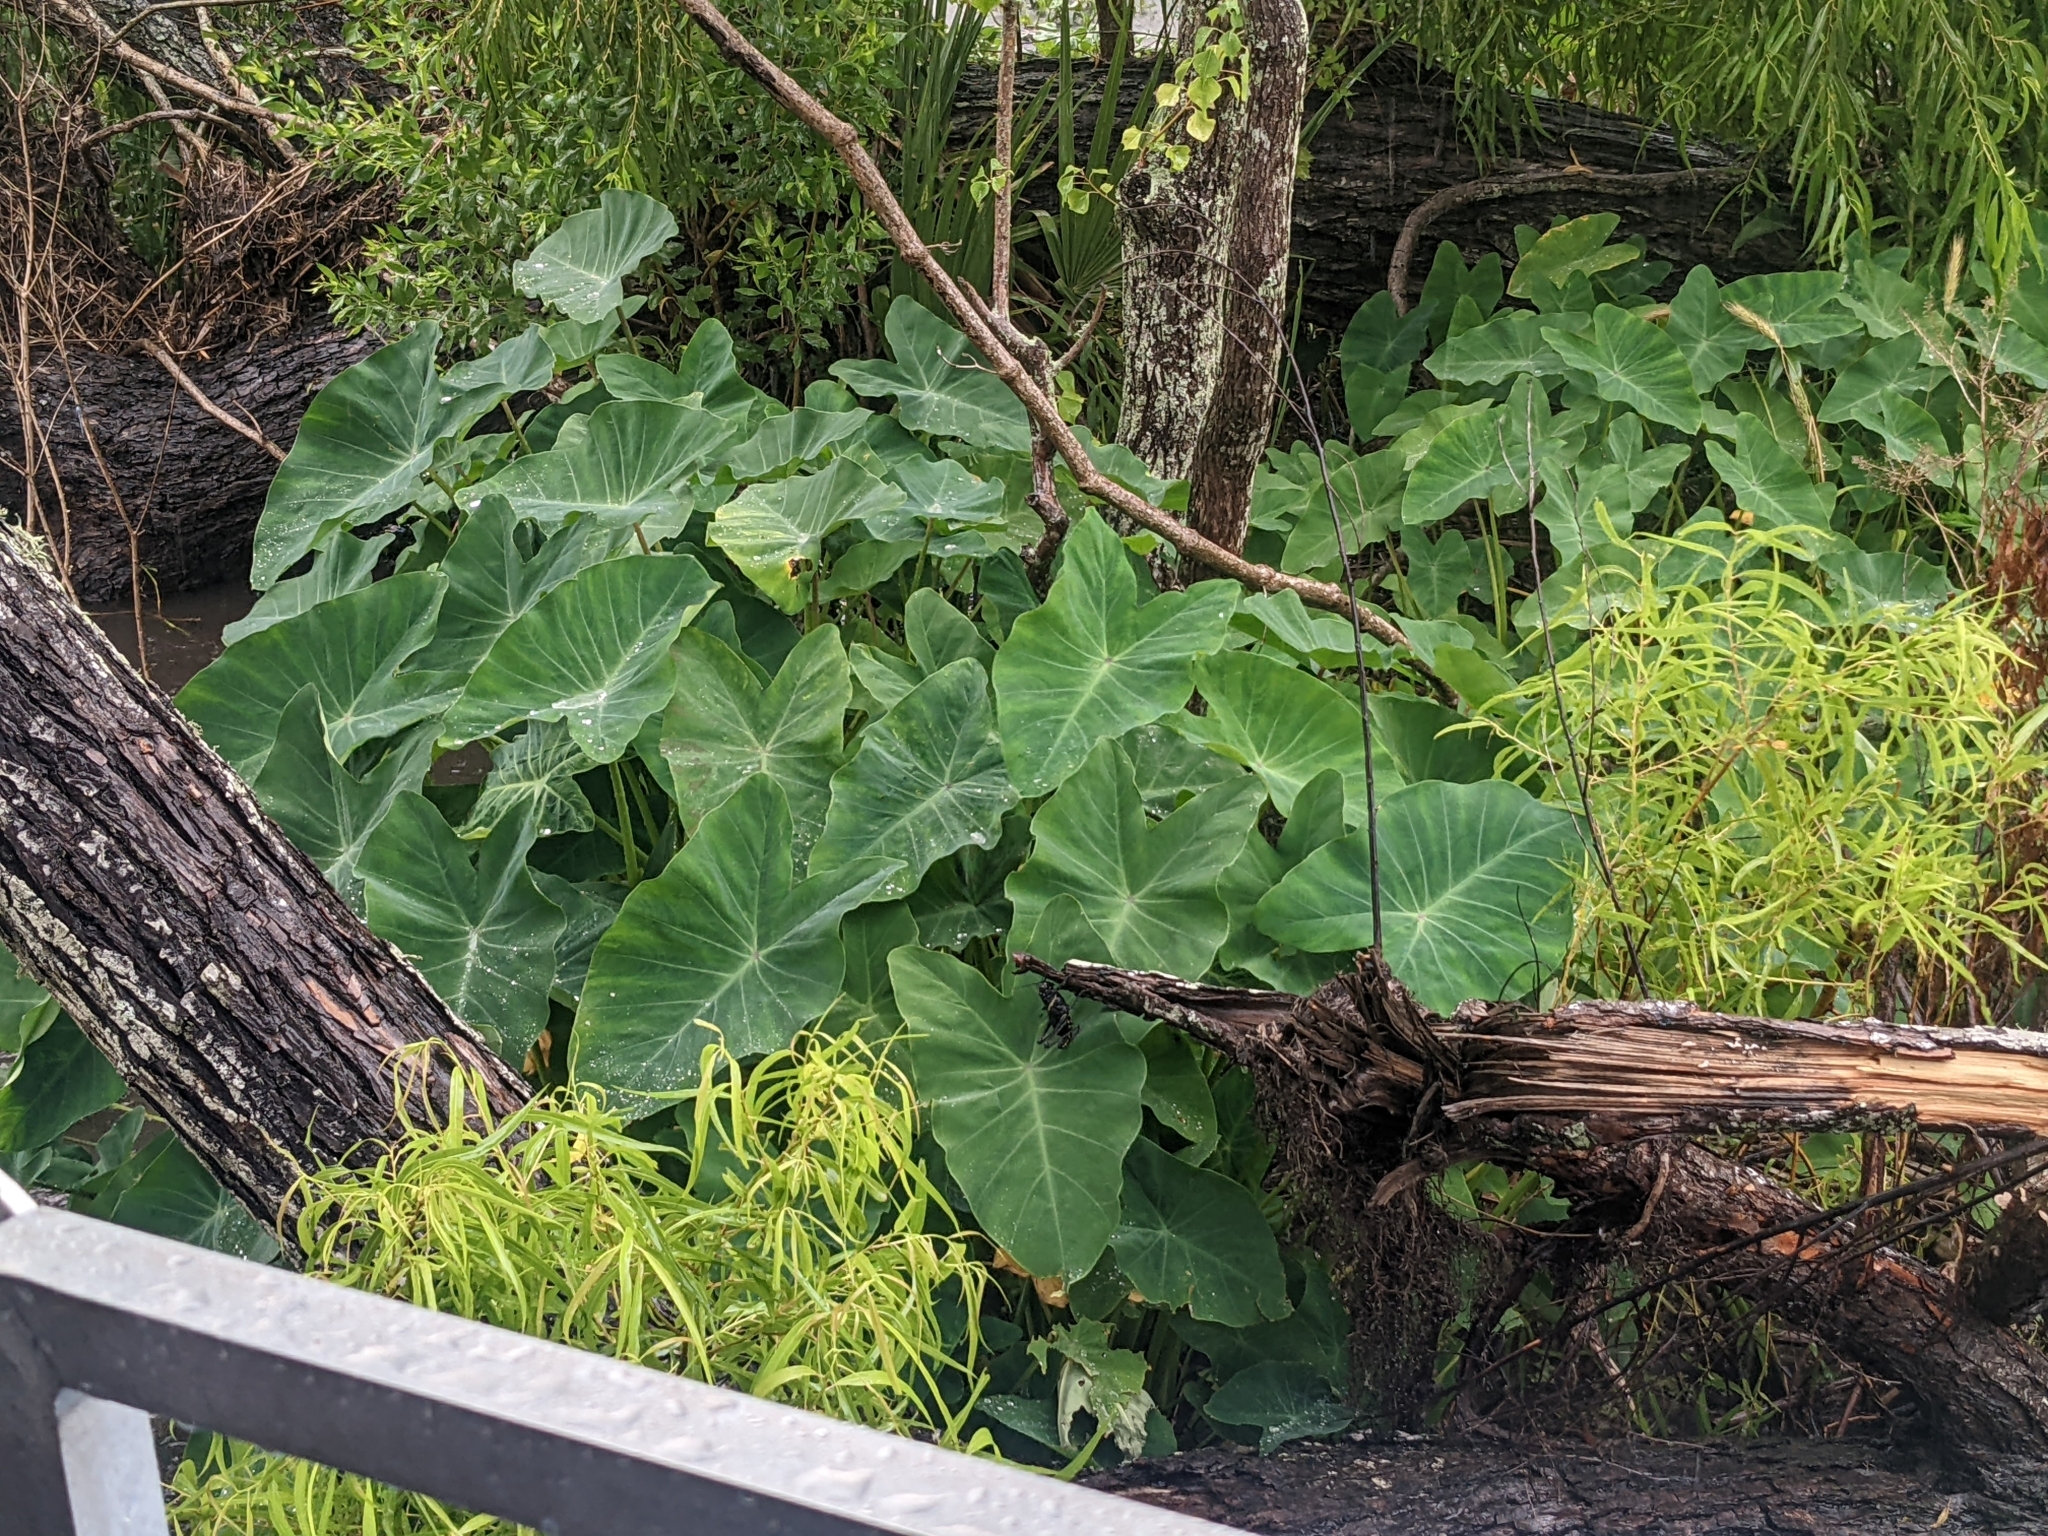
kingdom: Plantae
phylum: Tracheophyta
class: Liliopsida
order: Alismatales
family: Araceae
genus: Colocasia
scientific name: Colocasia esculenta
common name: Taro
